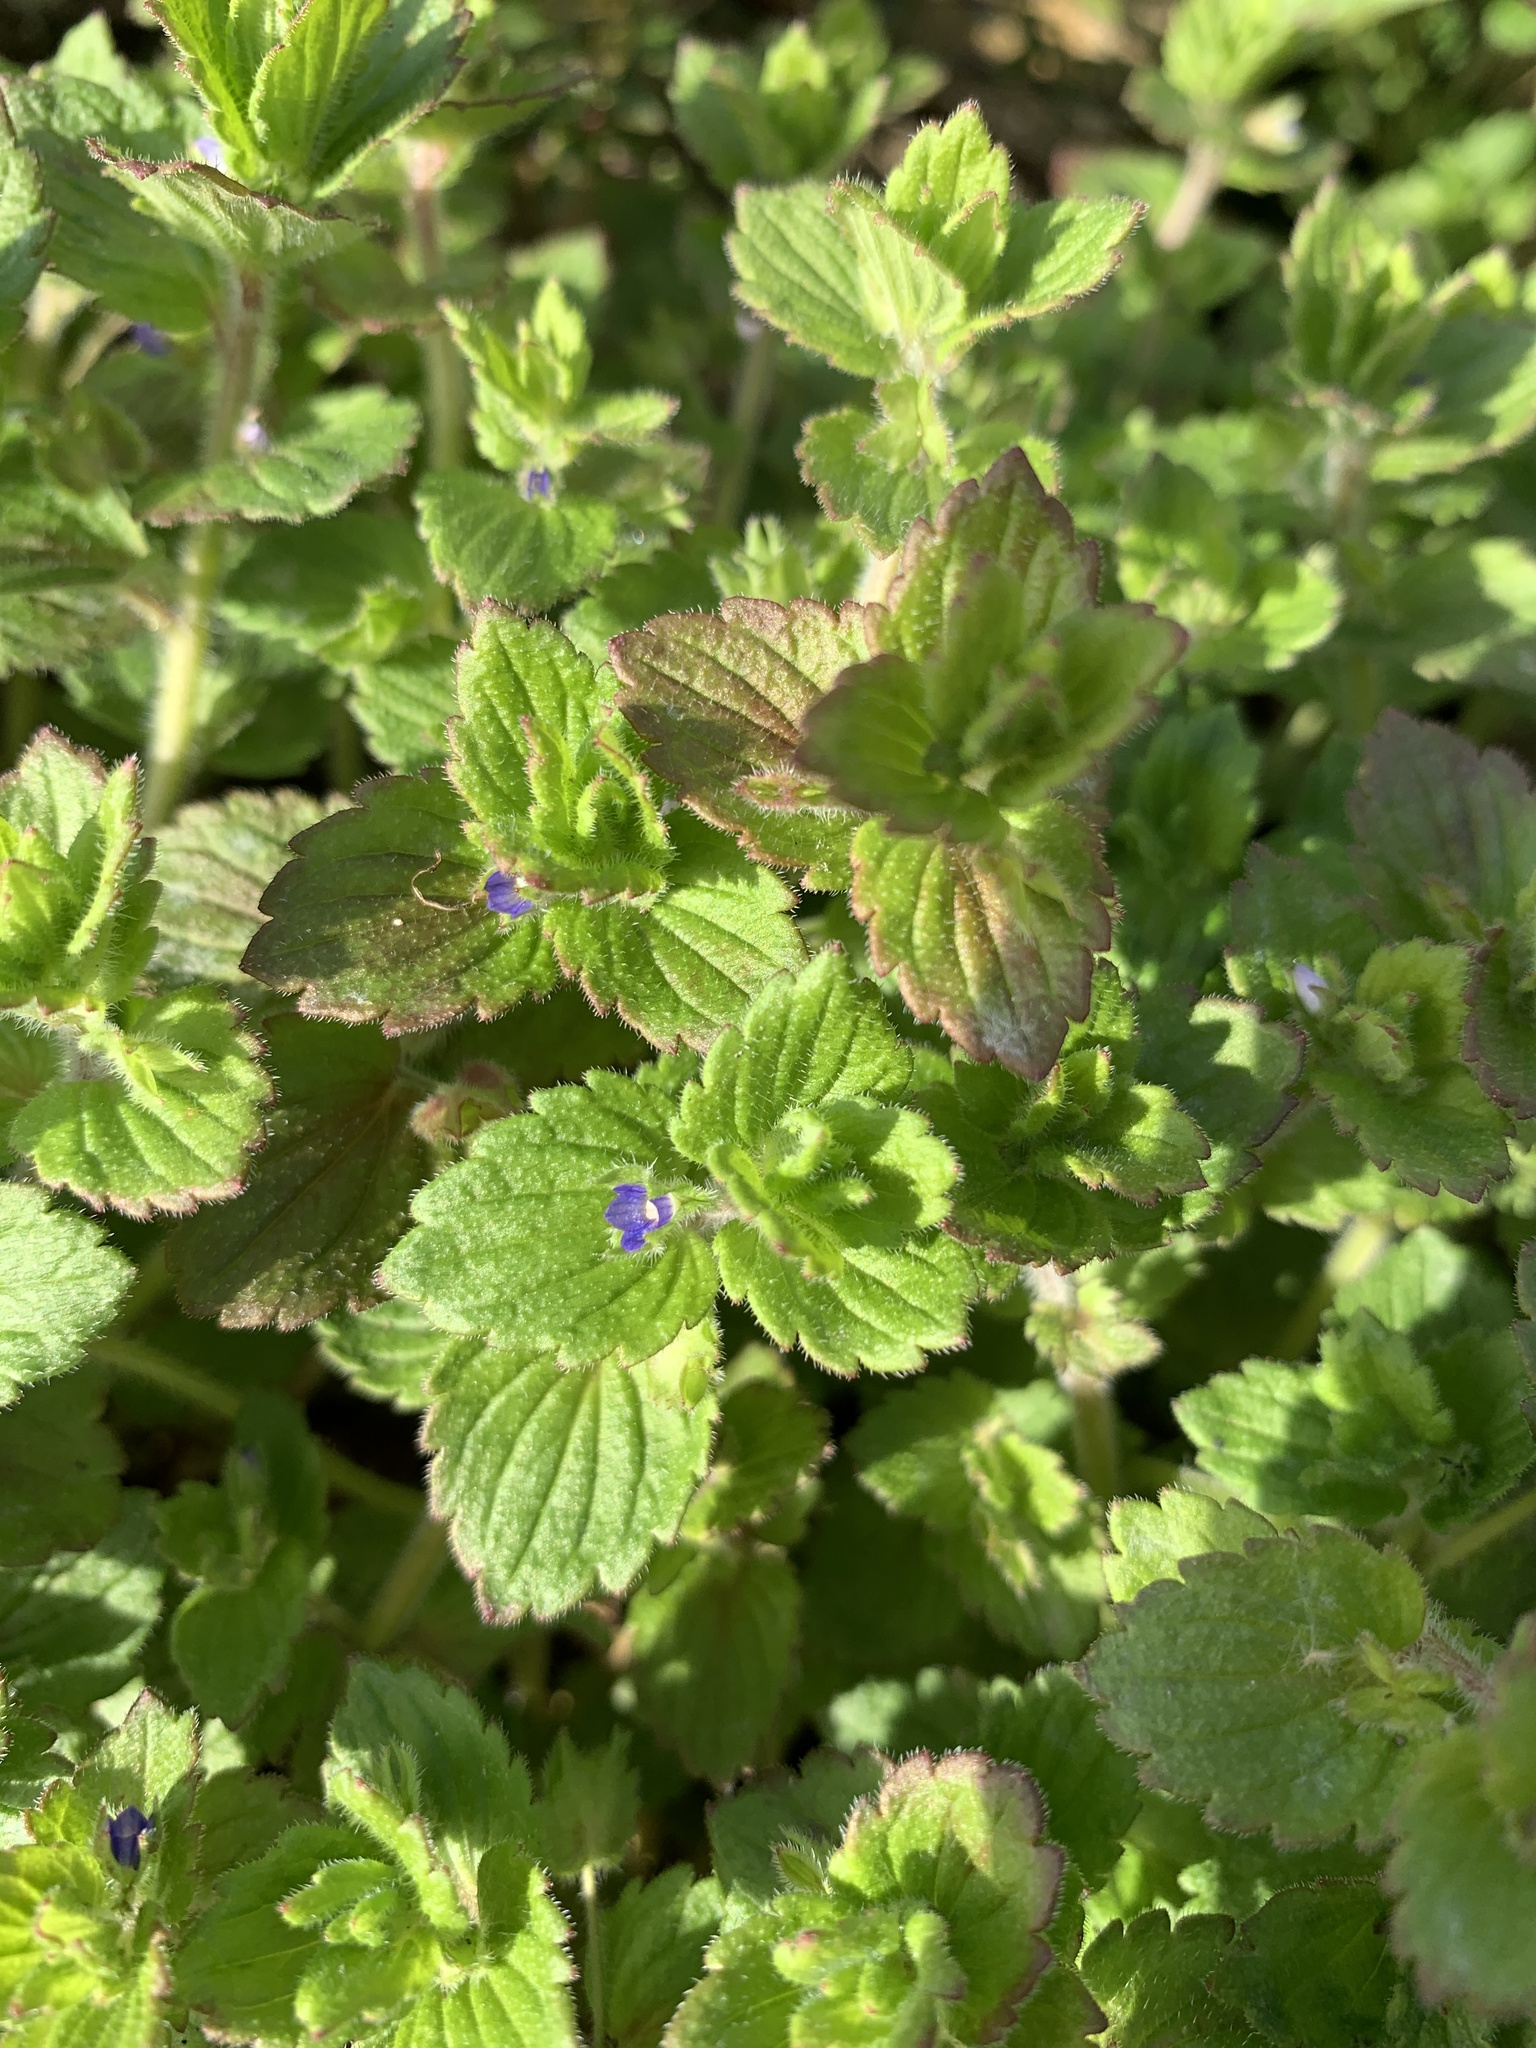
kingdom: Plantae
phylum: Tracheophyta
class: Magnoliopsida
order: Lamiales
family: Plantaginaceae
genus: Veronica
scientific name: Veronica persica
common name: Common field-speedwell
